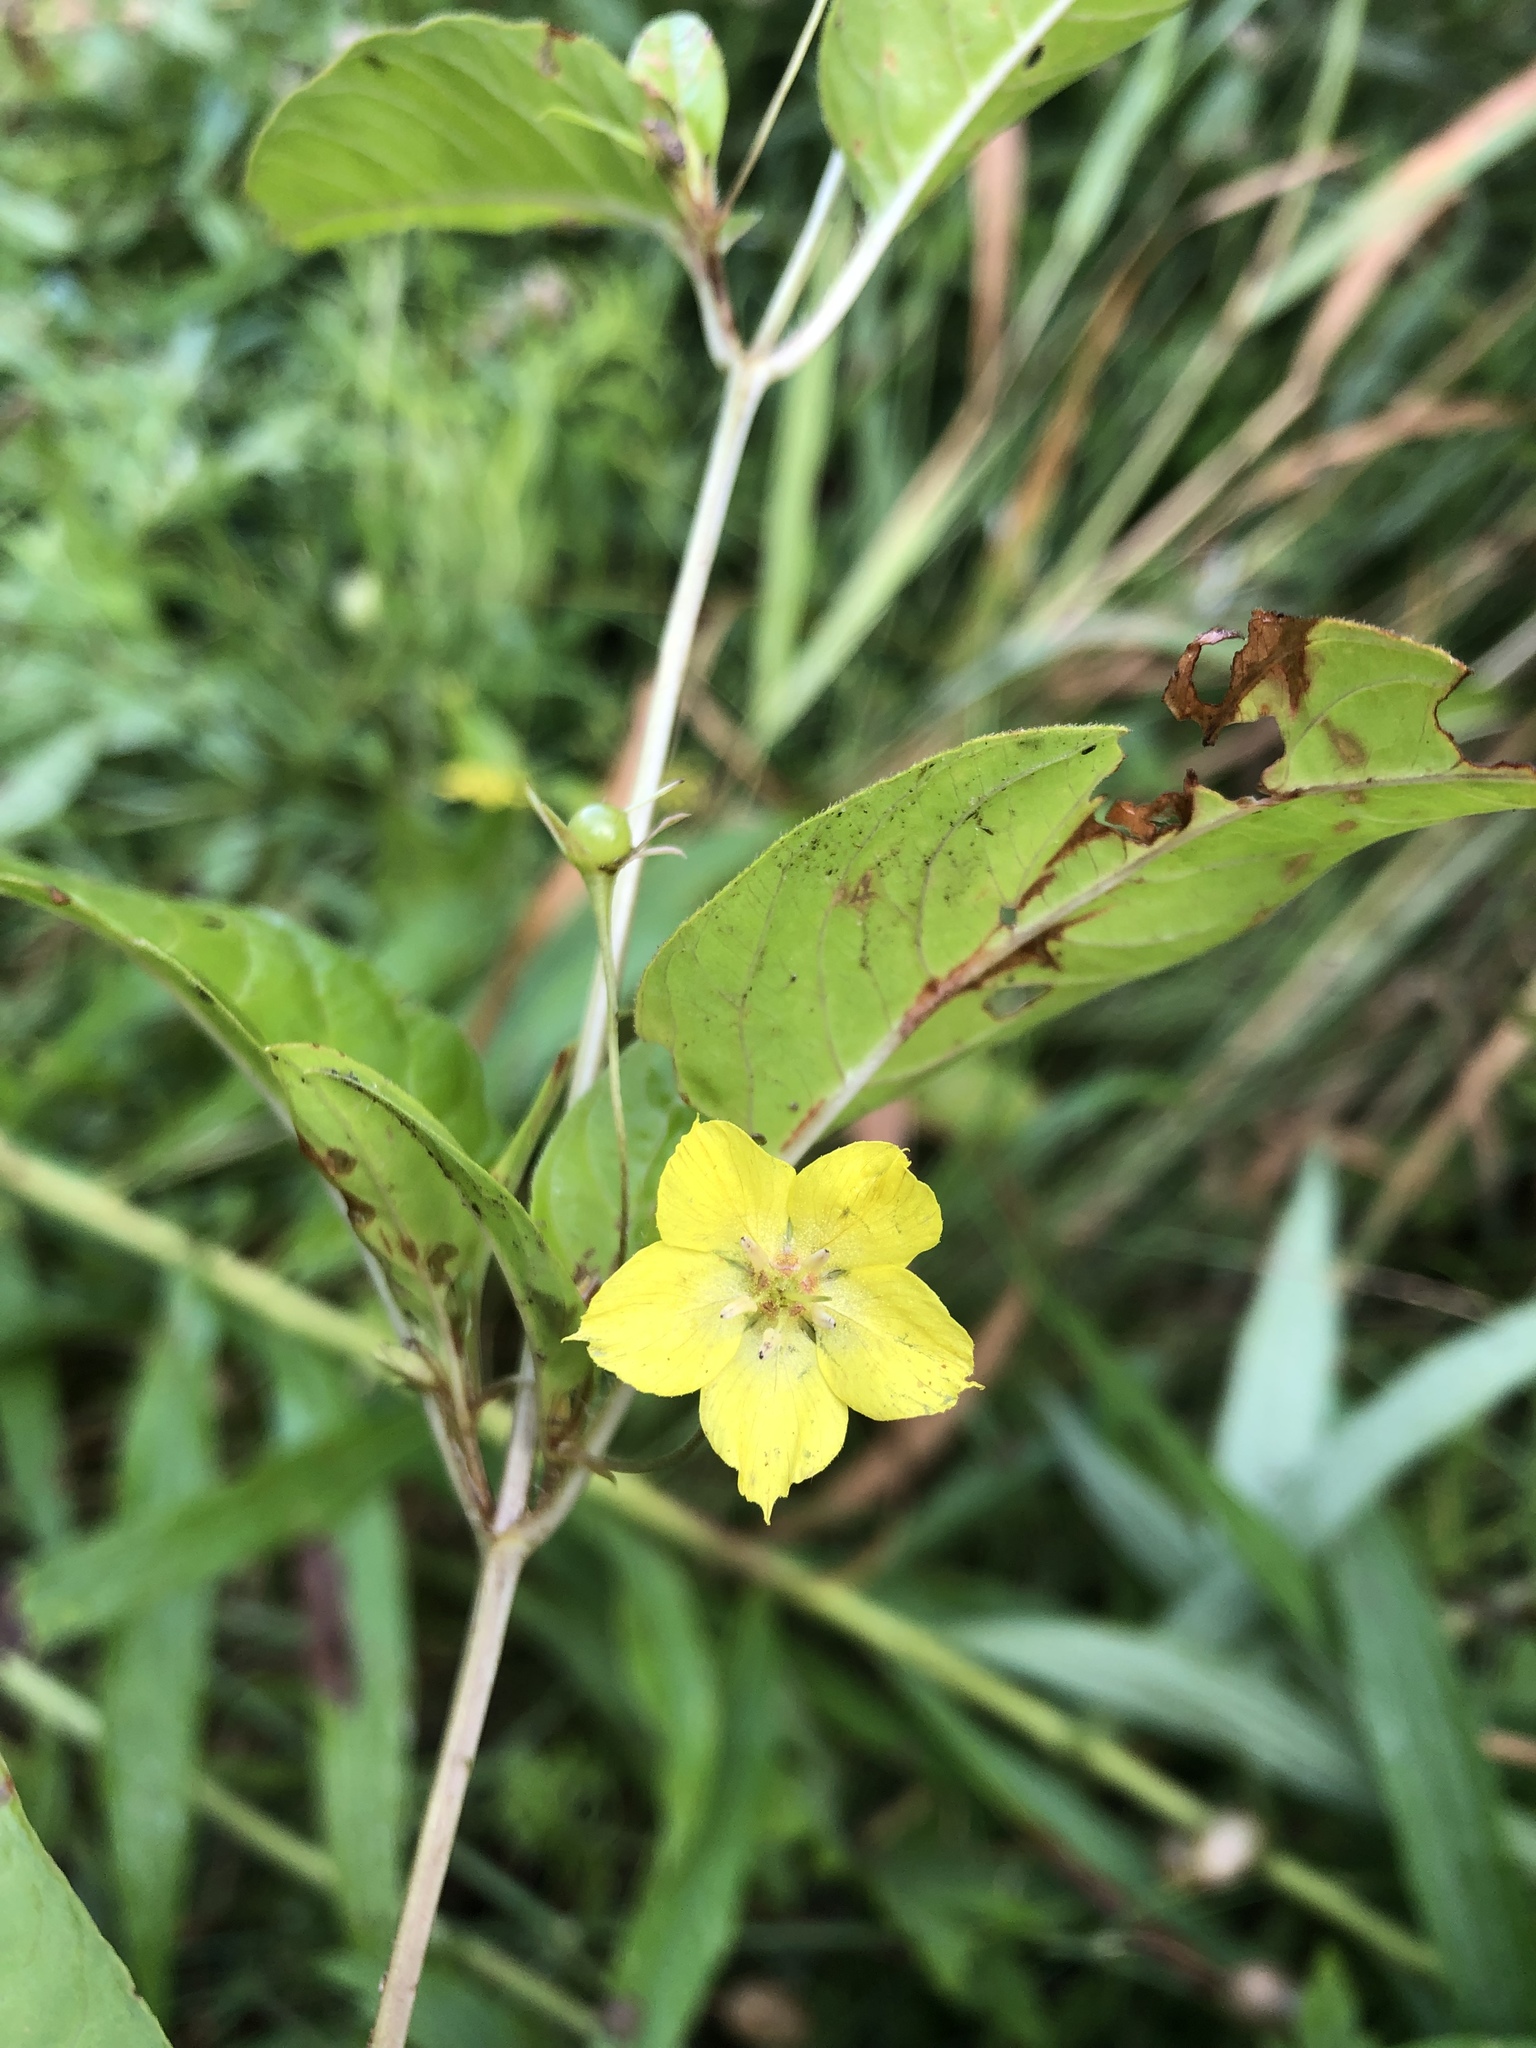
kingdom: Plantae
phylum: Tracheophyta
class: Magnoliopsida
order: Ericales
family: Primulaceae
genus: Lysimachia
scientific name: Lysimachia ciliata
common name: Fringed loosestrife
